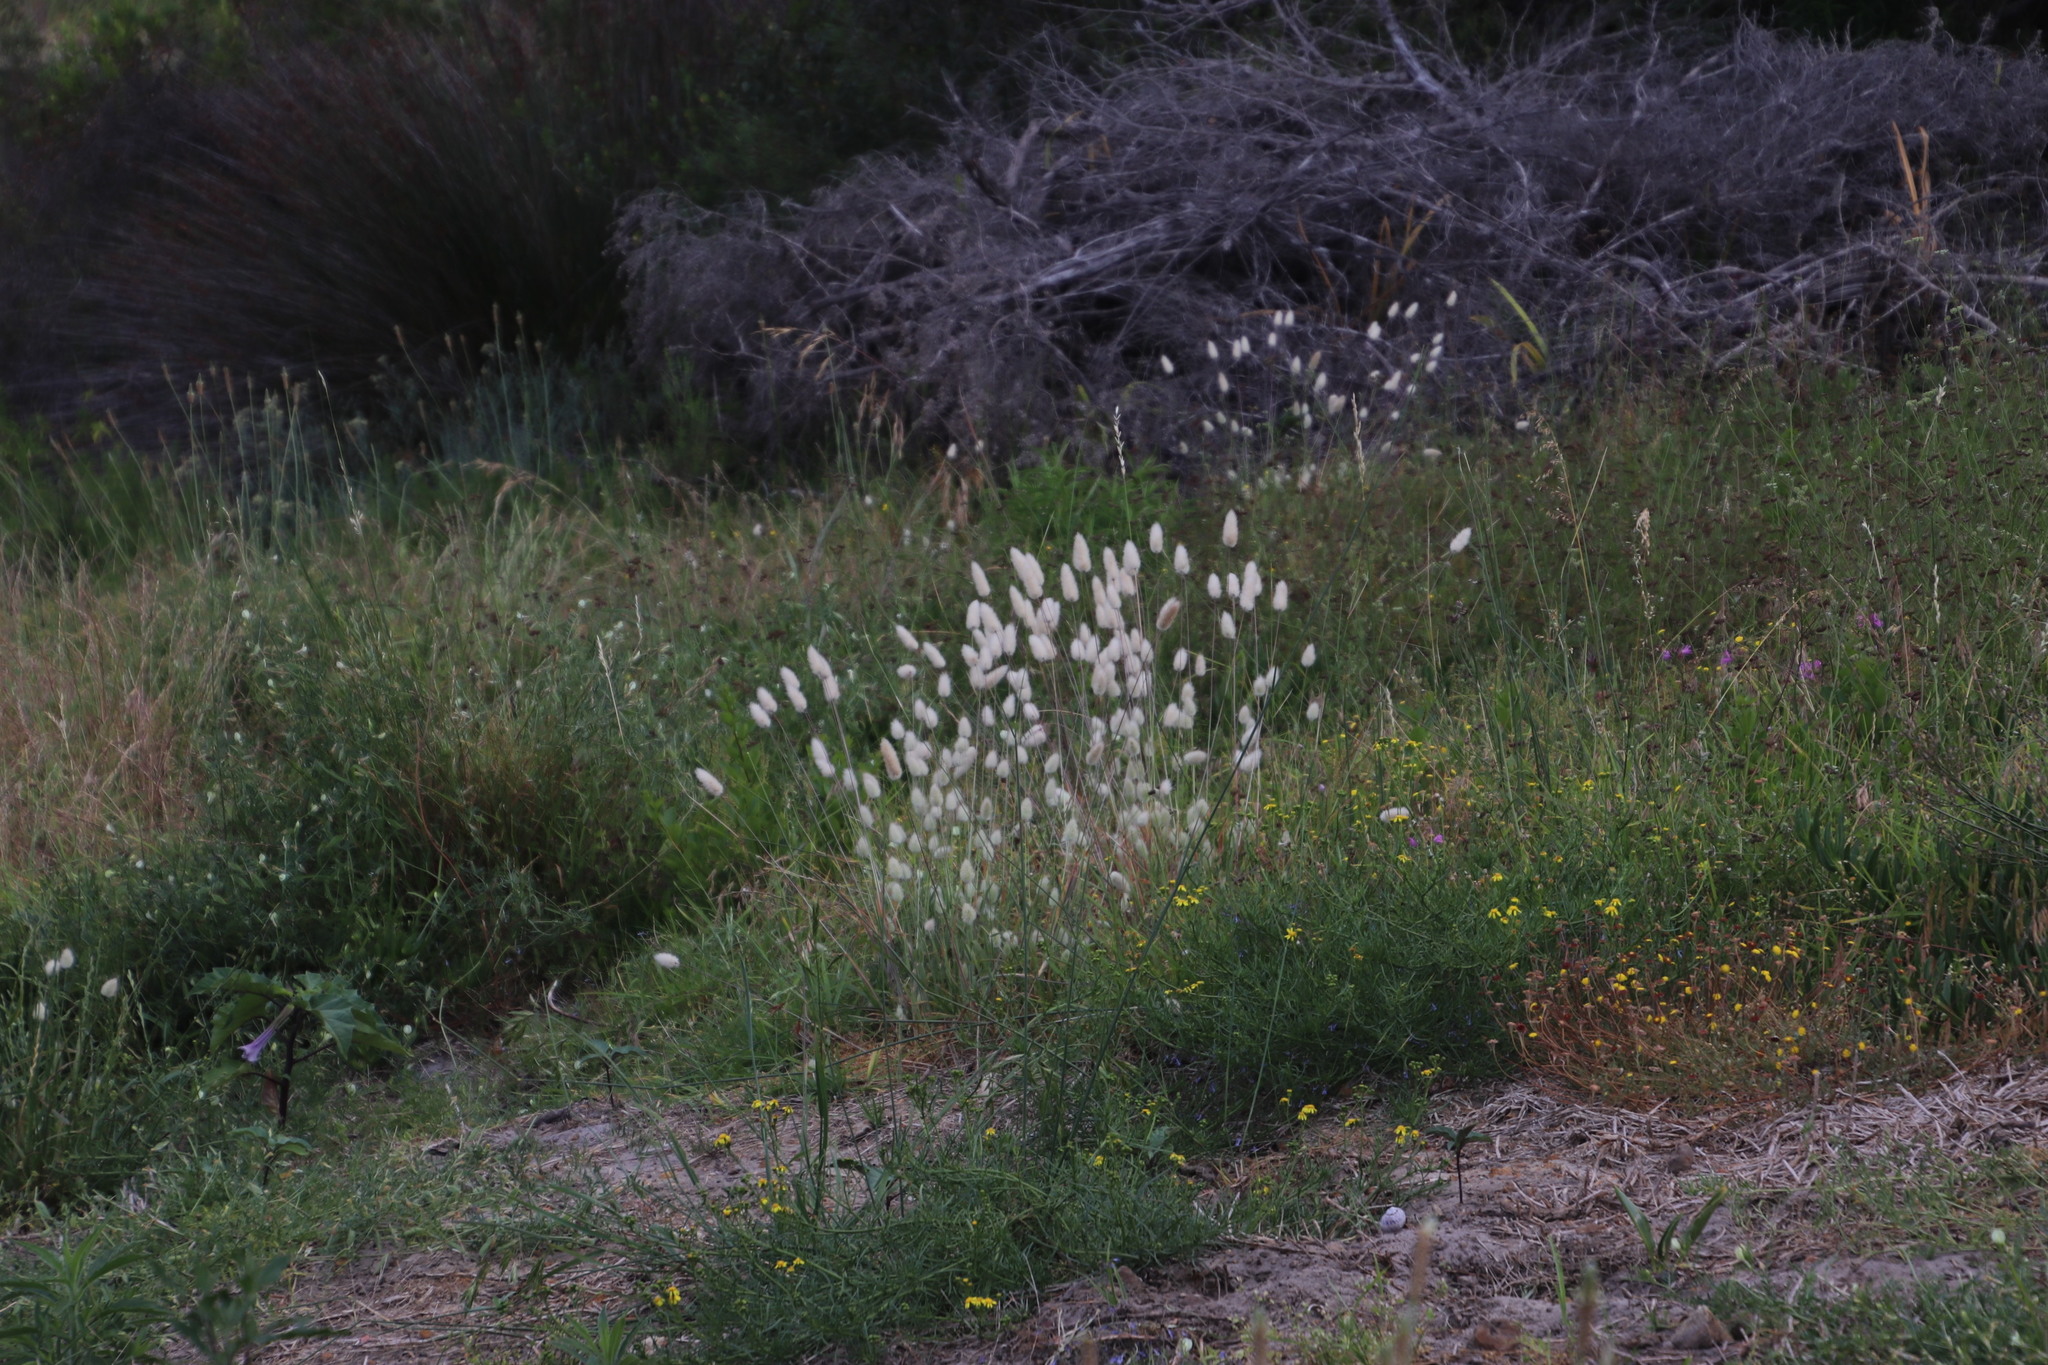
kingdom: Plantae
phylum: Tracheophyta
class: Liliopsida
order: Poales
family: Poaceae
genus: Lagurus
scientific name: Lagurus ovatus
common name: Hare's-tail
